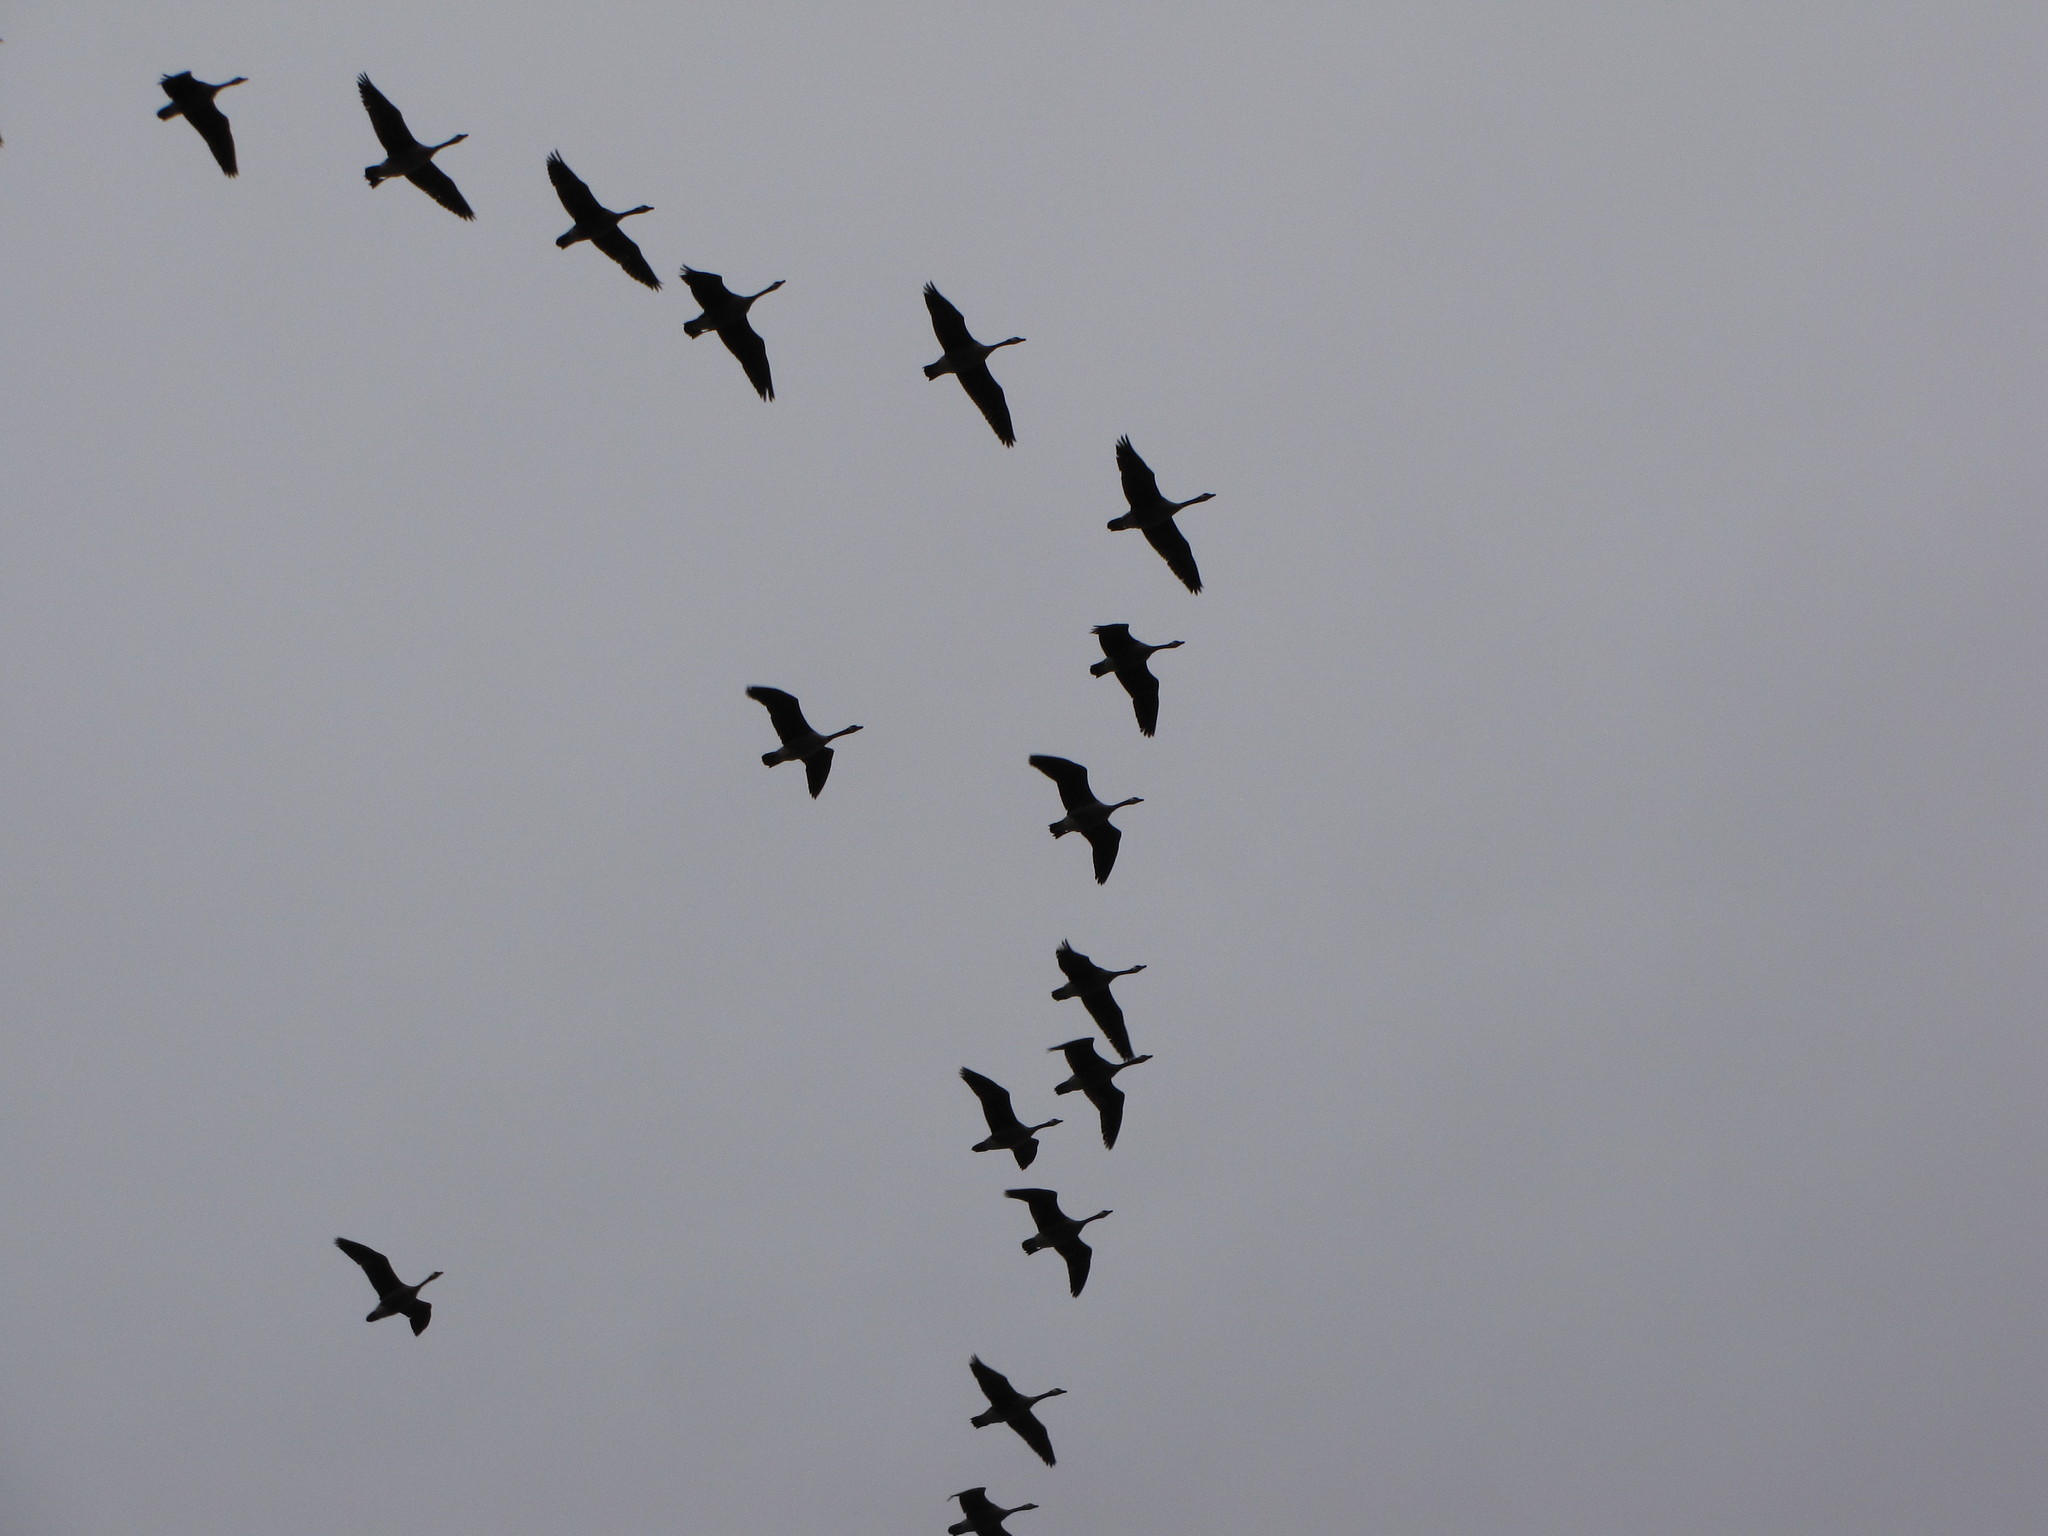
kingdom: Animalia
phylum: Chordata
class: Aves
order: Anseriformes
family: Anatidae
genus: Branta
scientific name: Branta canadensis
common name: Canada goose
